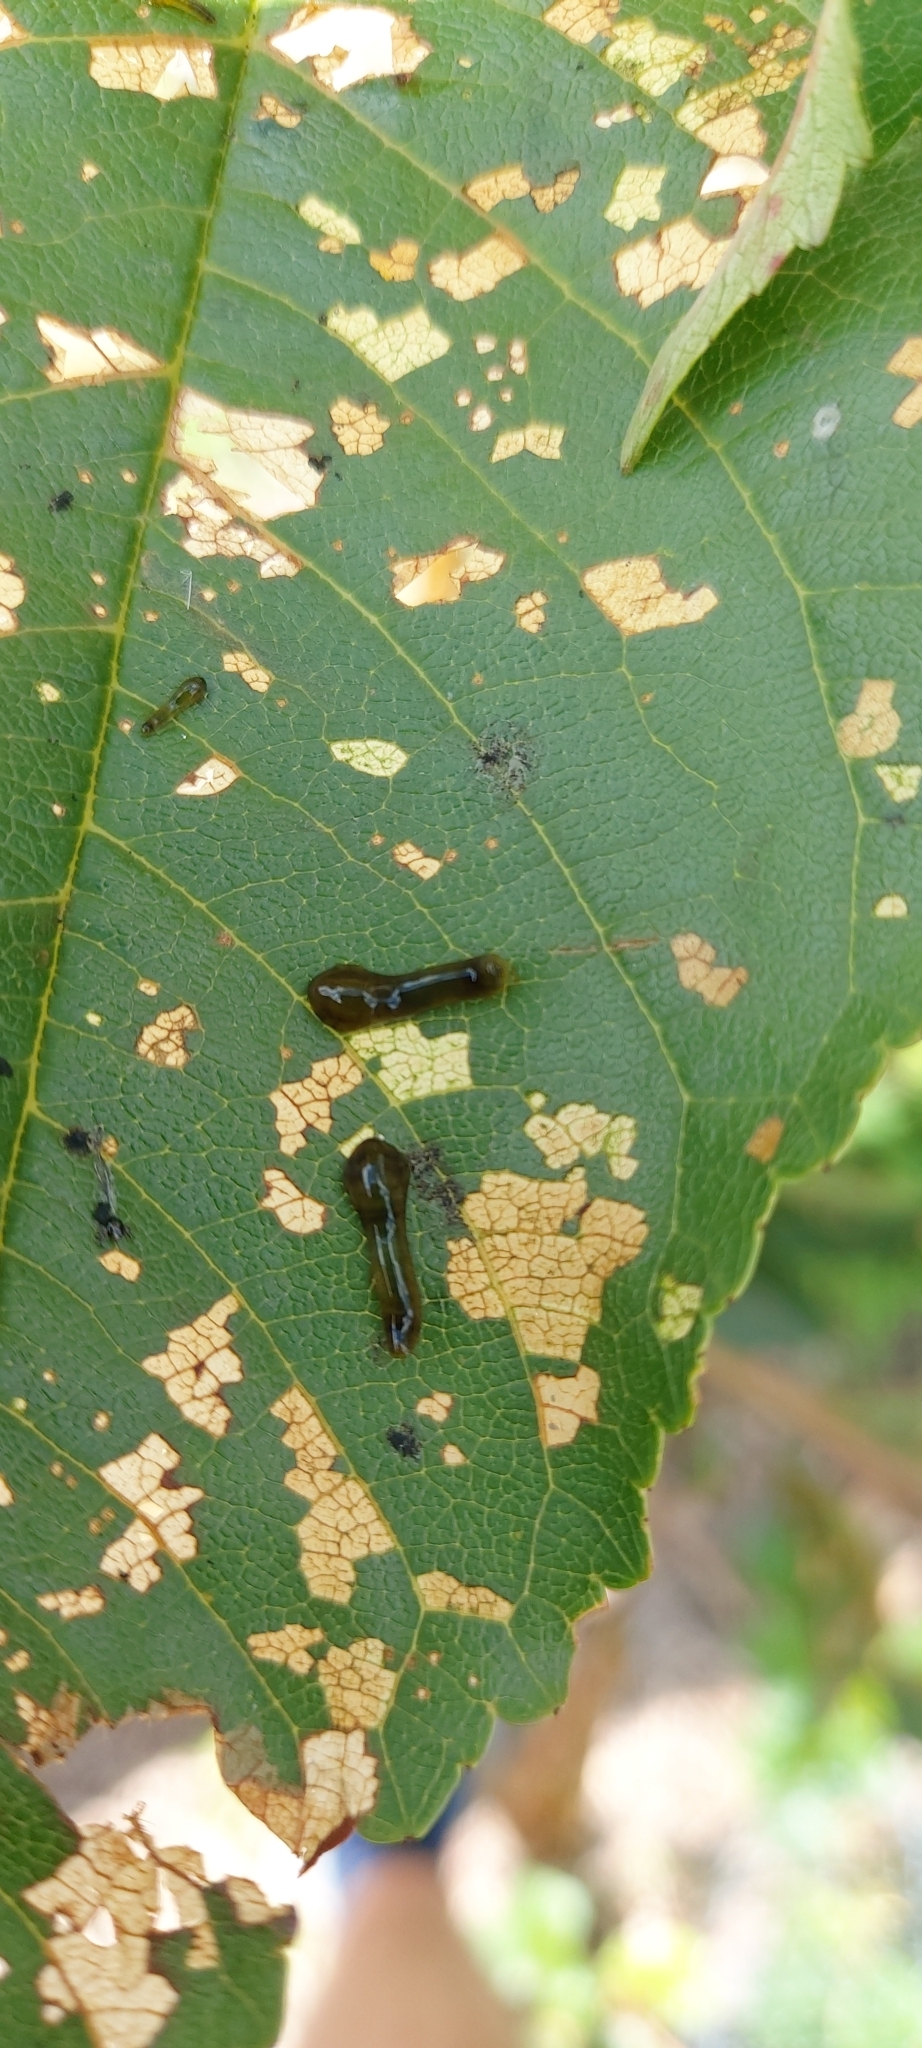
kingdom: Animalia
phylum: Arthropoda
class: Insecta
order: Hymenoptera
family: Tenthredinidae
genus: Caliroa
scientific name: Caliroa cerasi
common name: Pear sawfly
